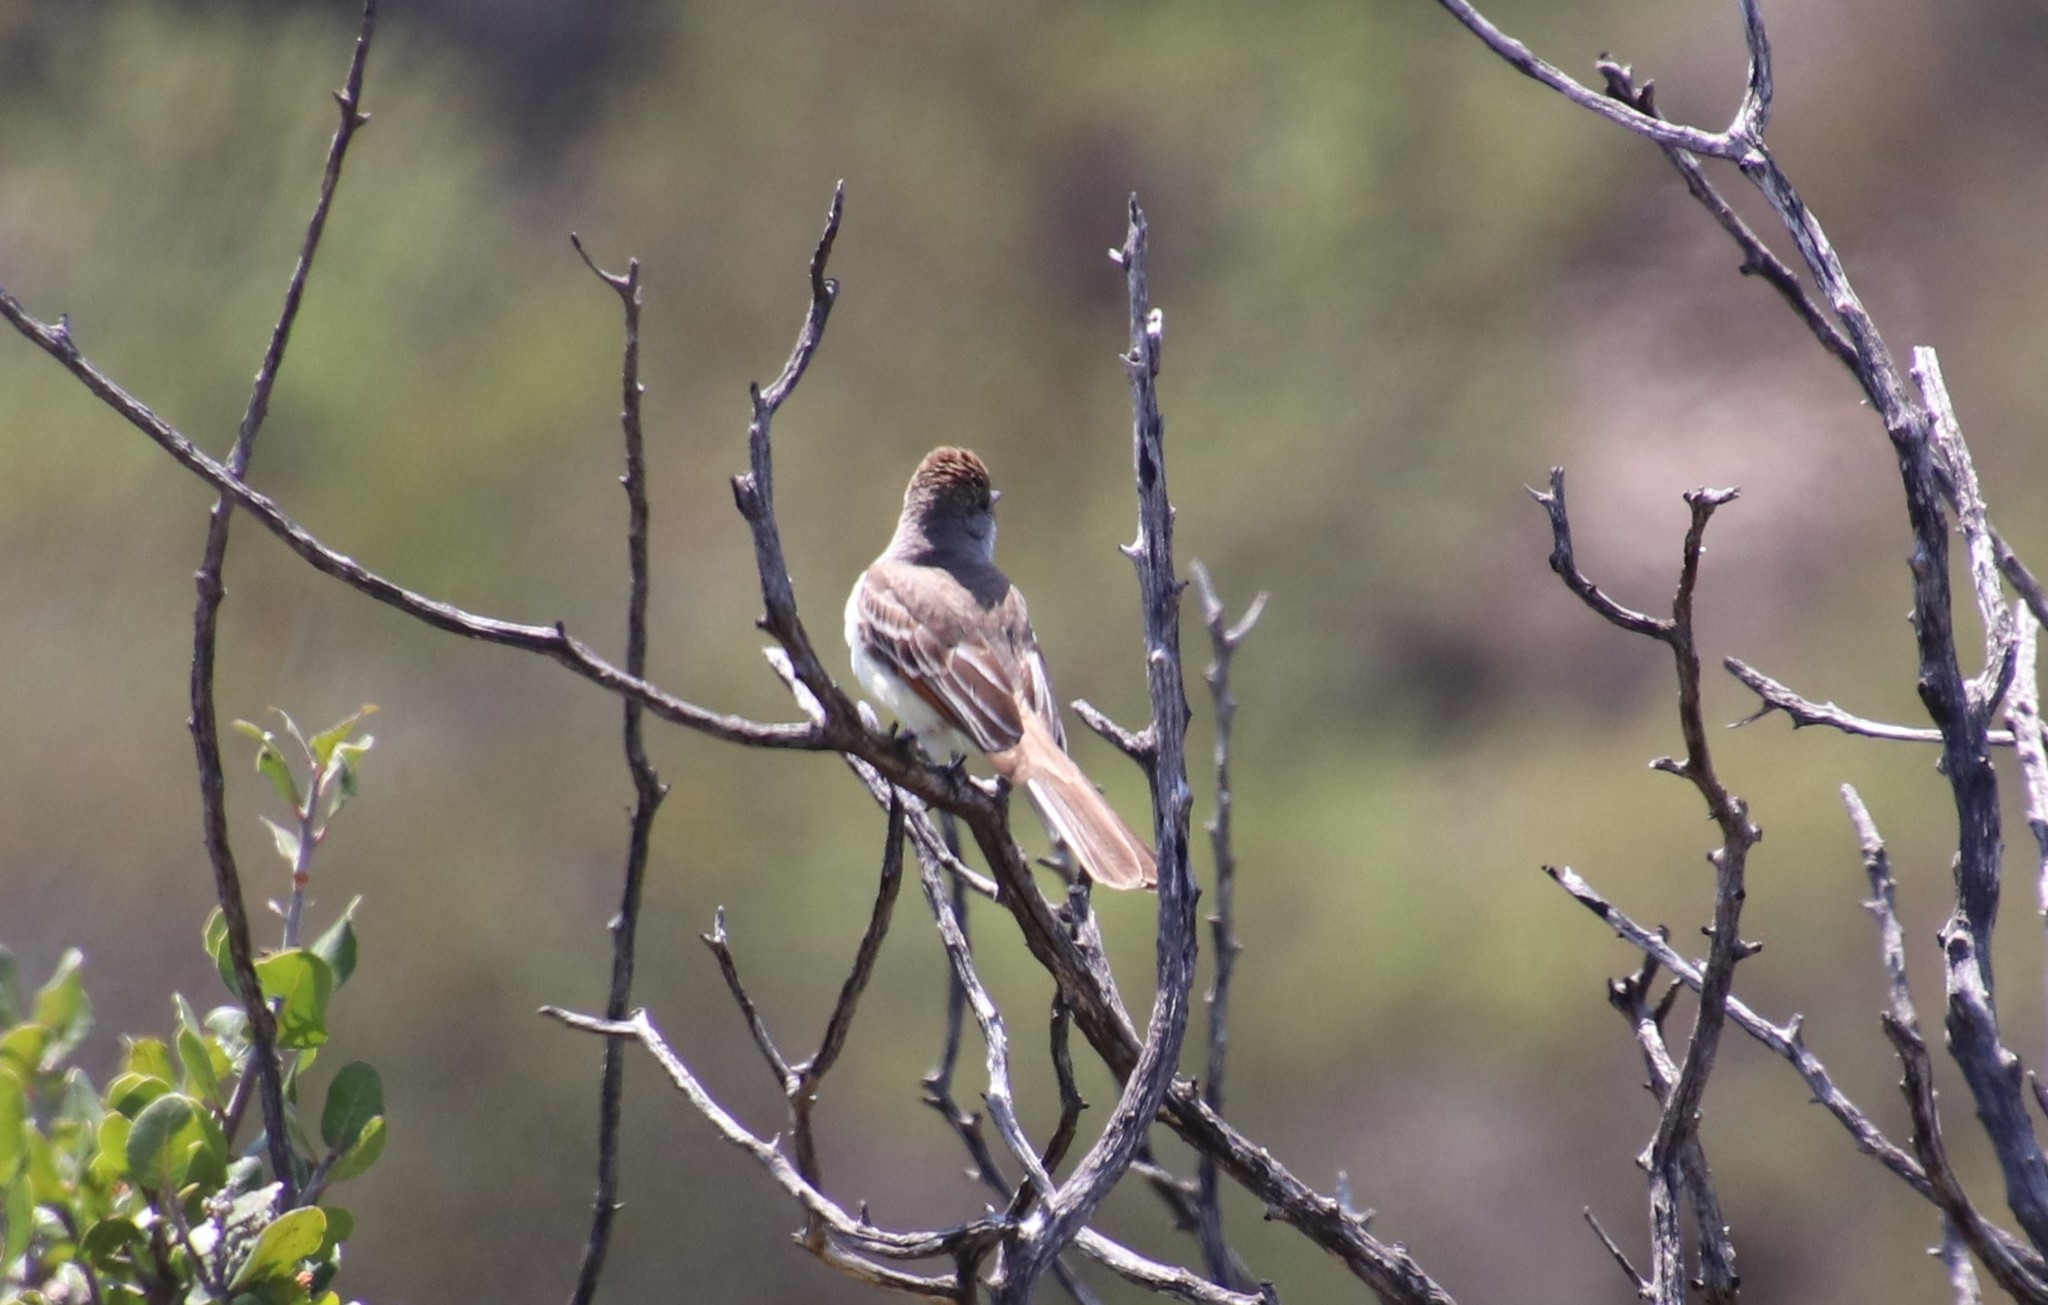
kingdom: Animalia
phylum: Chordata
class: Aves
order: Passeriformes
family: Tyrannidae
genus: Myiarchus
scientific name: Myiarchus cinerascens
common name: Ash-throated flycatcher
